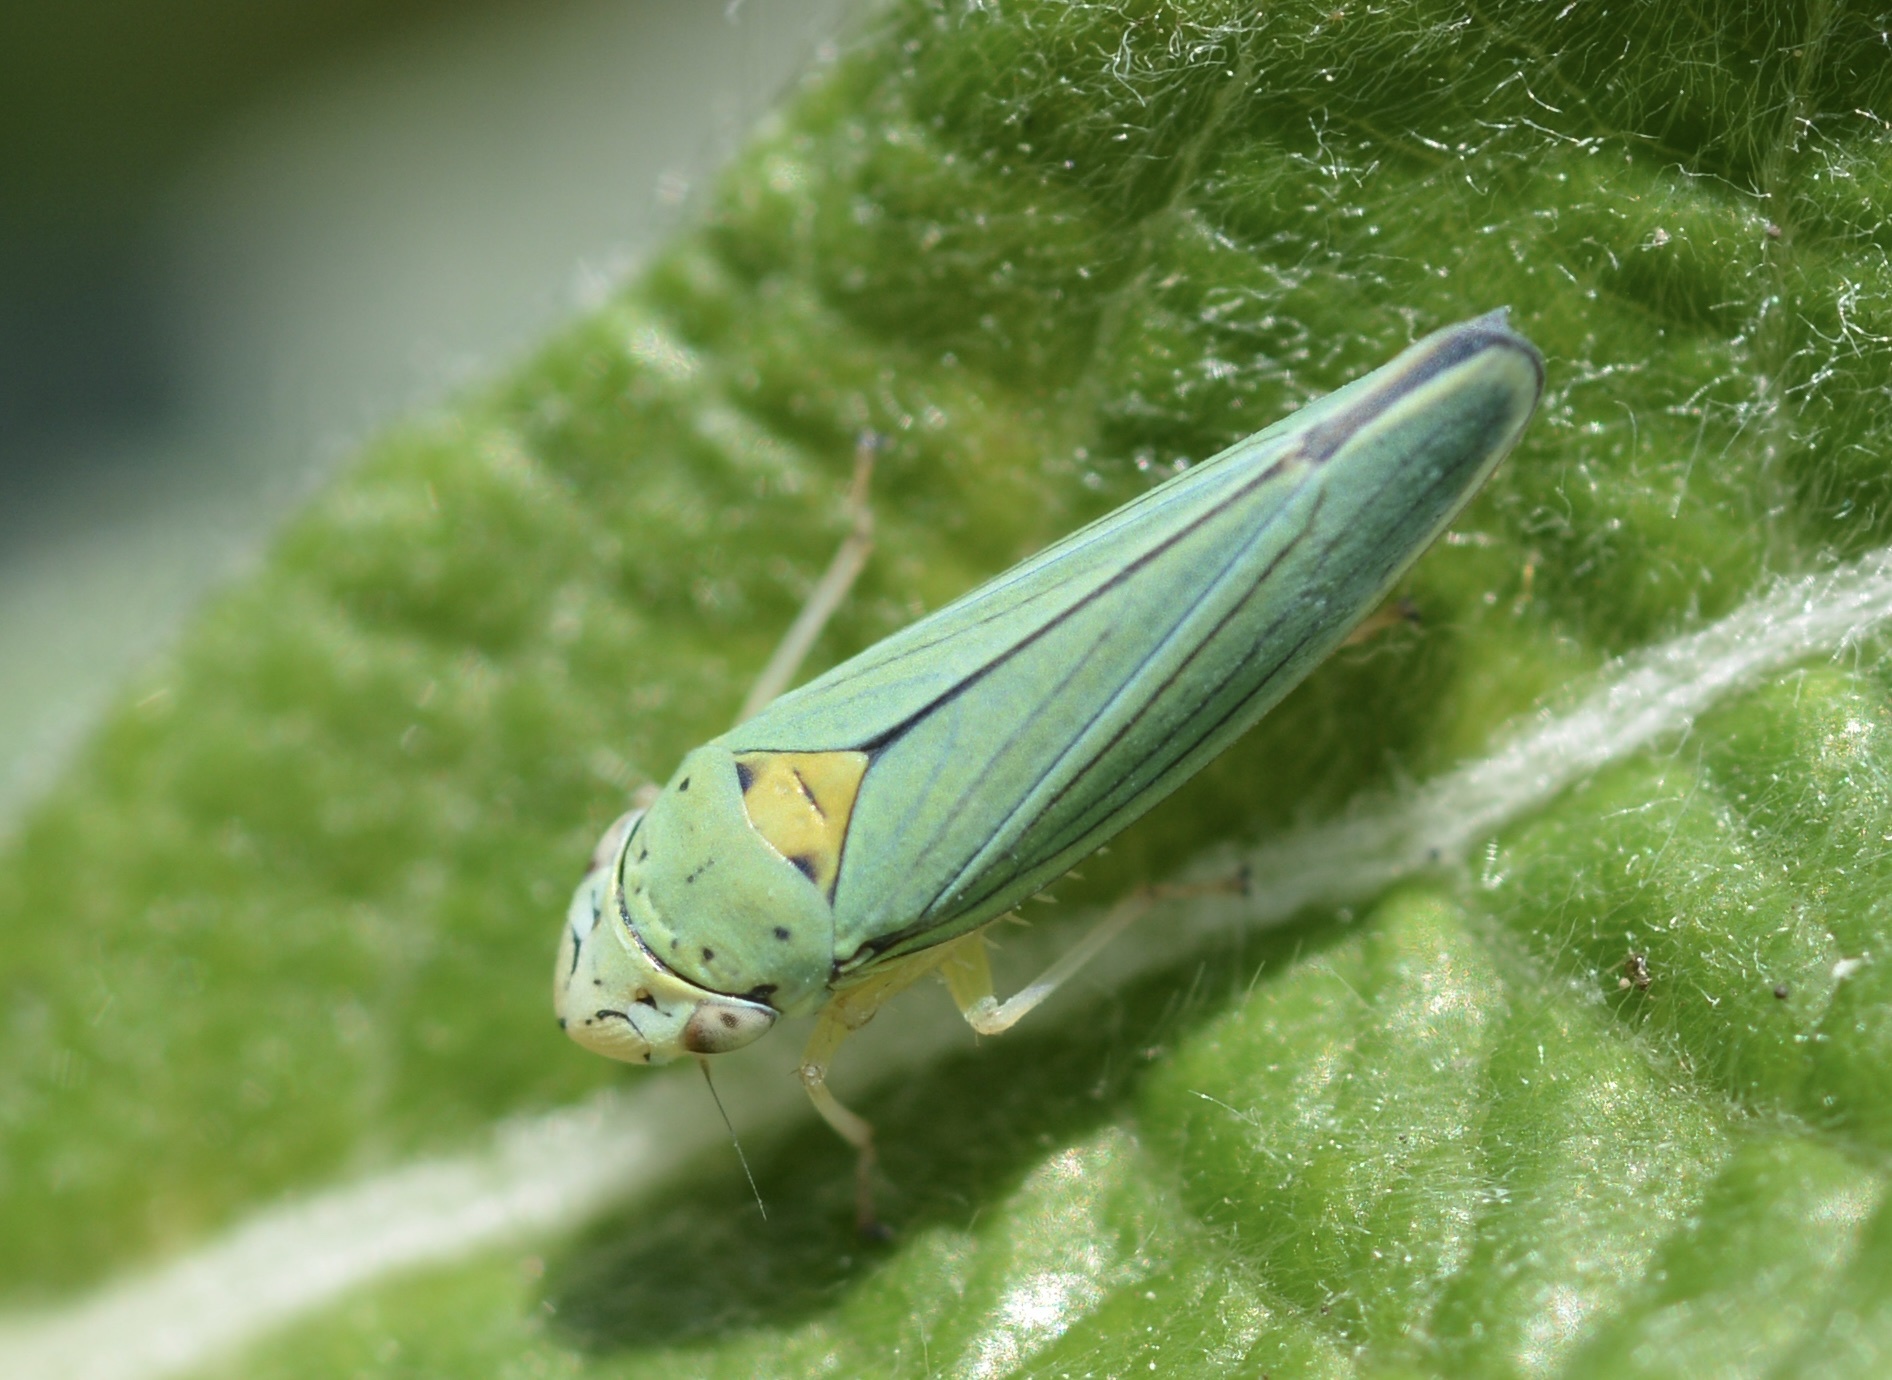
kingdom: Animalia
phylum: Arthropoda
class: Insecta
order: Hemiptera
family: Cicadellidae
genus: Graphocephala
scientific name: Graphocephala atropunctata
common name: Blue-green sharpshooter
